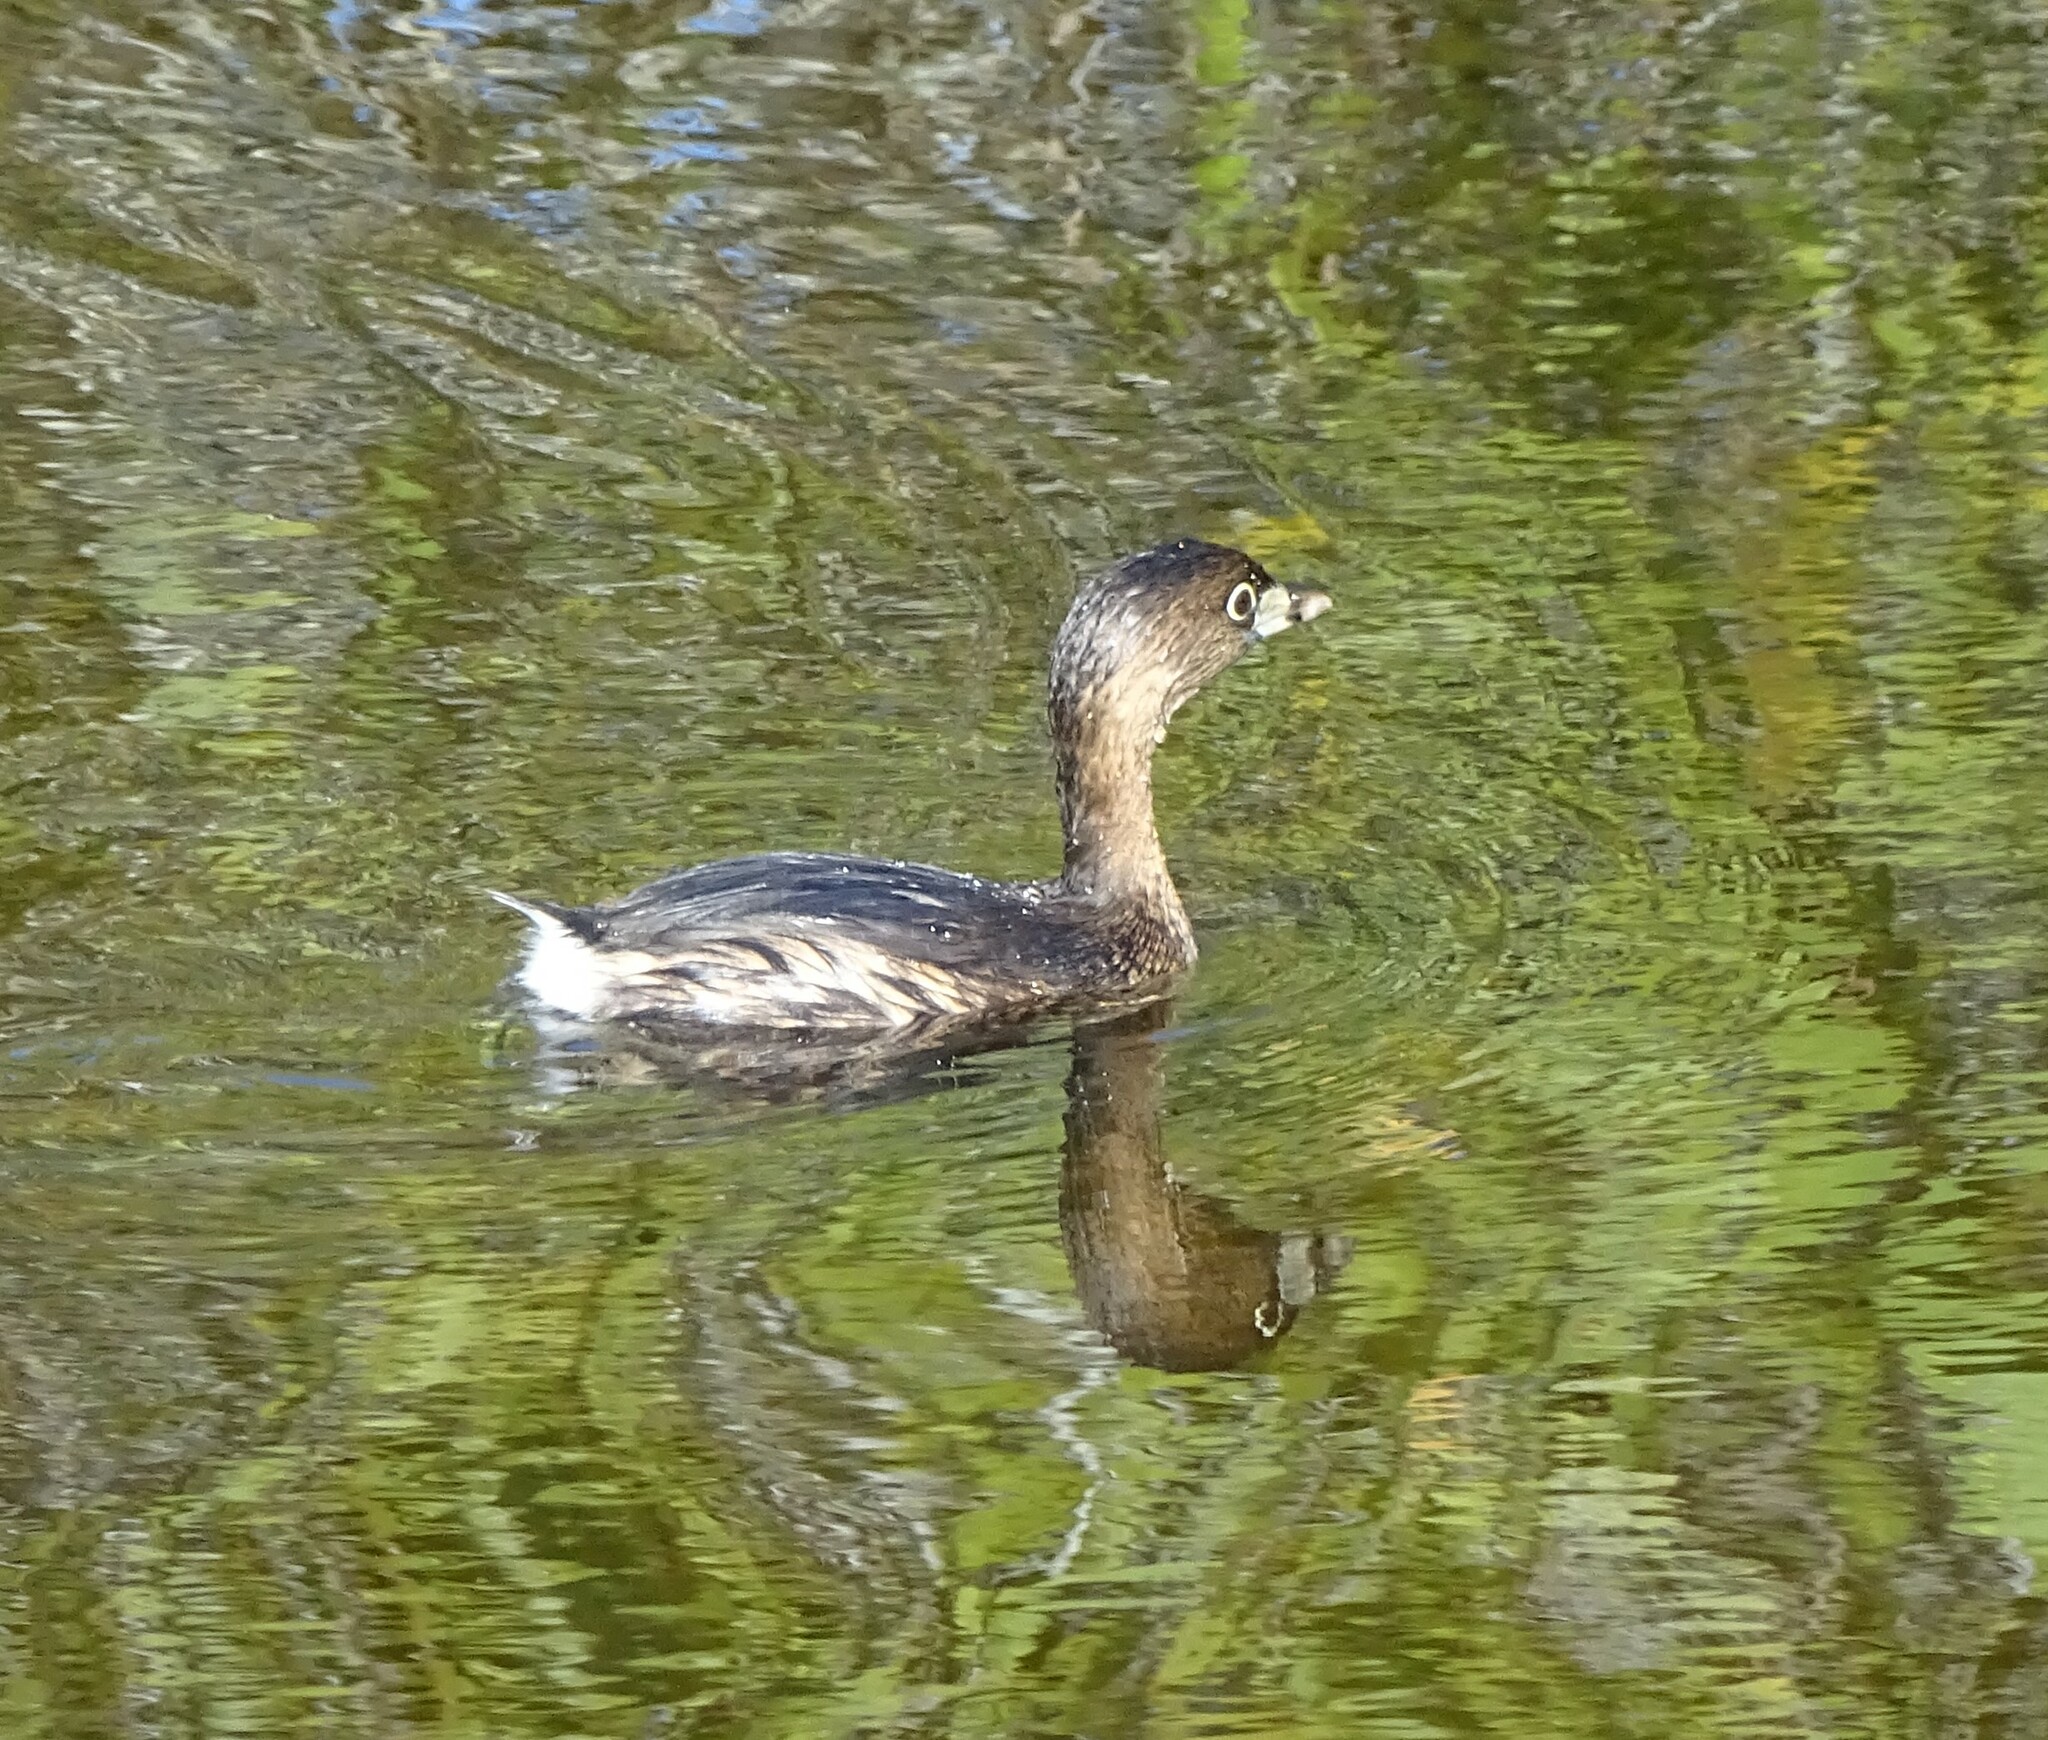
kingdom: Animalia
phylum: Chordata
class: Aves
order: Podicipediformes
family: Podicipedidae
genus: Podilymbus
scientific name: Podilymbus podiceps
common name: Pied-billed grebe
